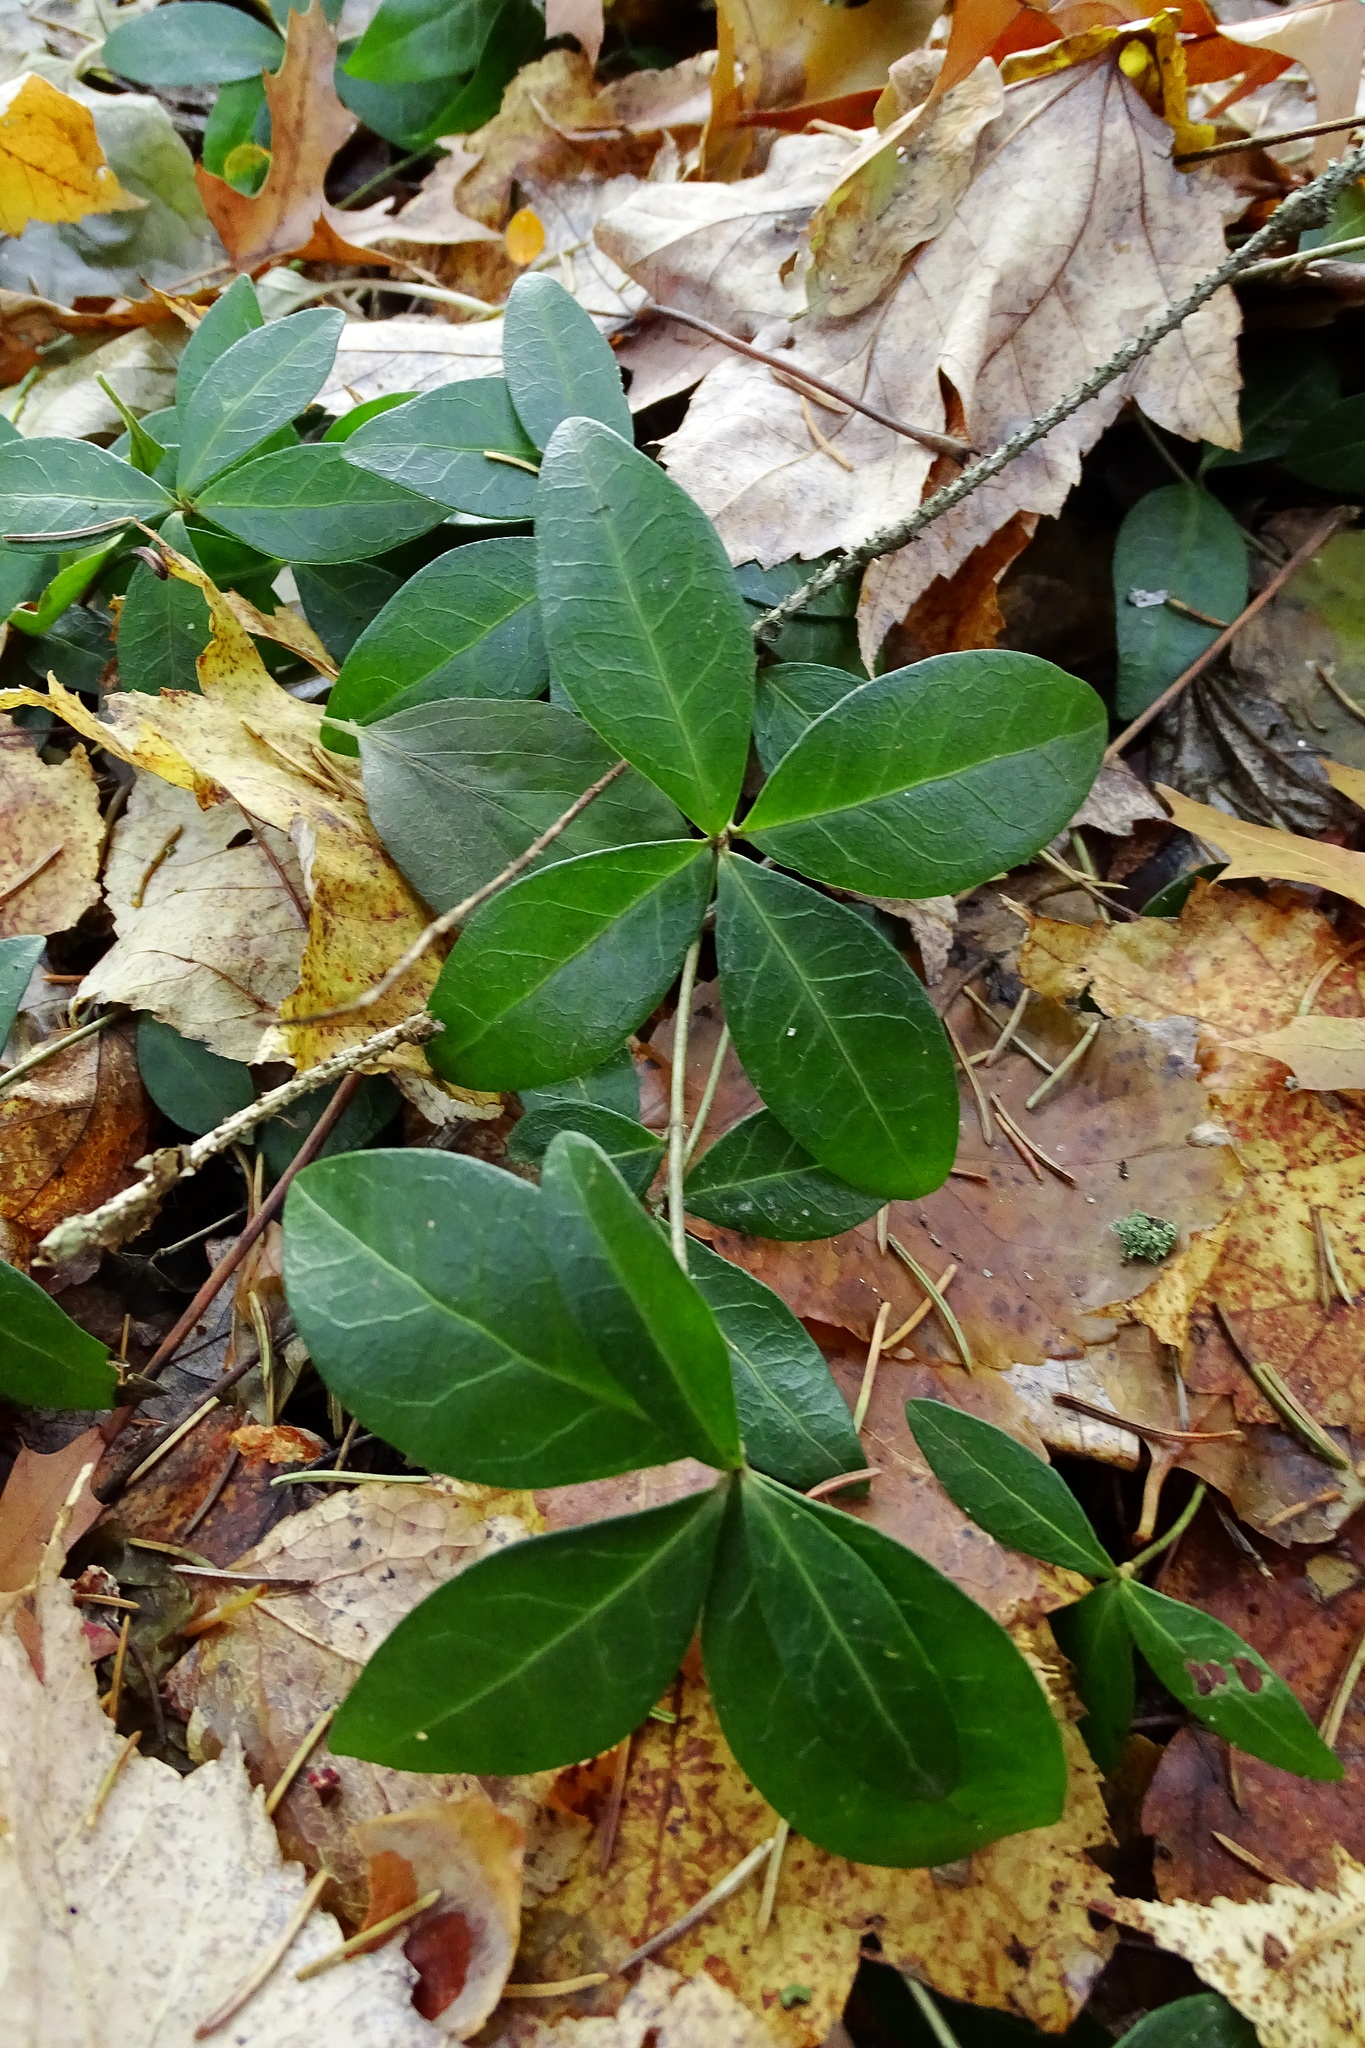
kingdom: Plantae
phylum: Tracheophyta
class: Magnoliopsida
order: Gentianales
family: Apocynaceae
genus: Vinca
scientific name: Vinca minor
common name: Lesser periwinkle
